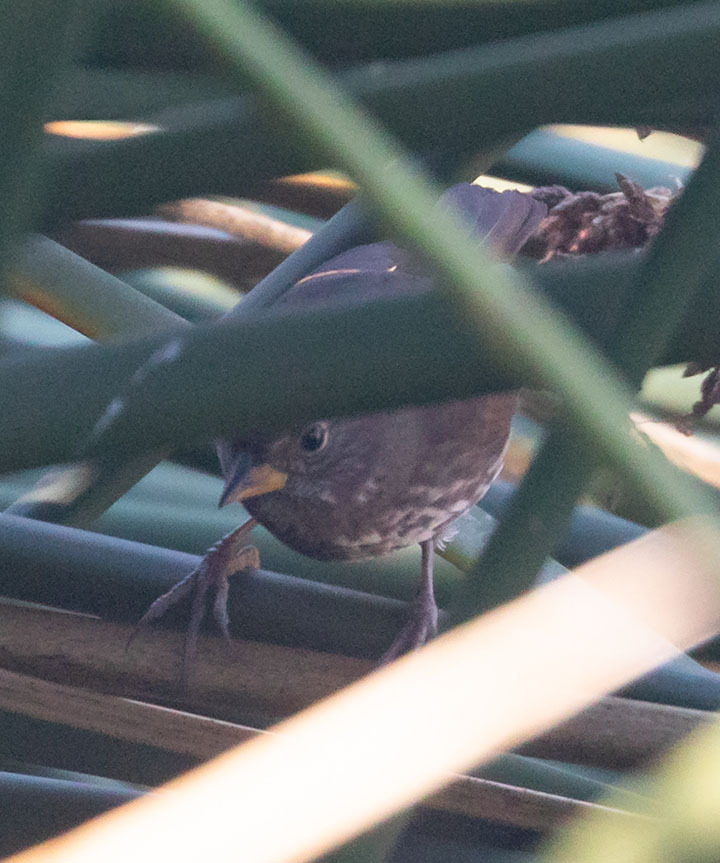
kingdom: Animalia
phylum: Chordata
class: Aves
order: Passeriformes
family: Passerellidae
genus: Passerella
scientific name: Passerella iliaca
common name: Fox sparrow
